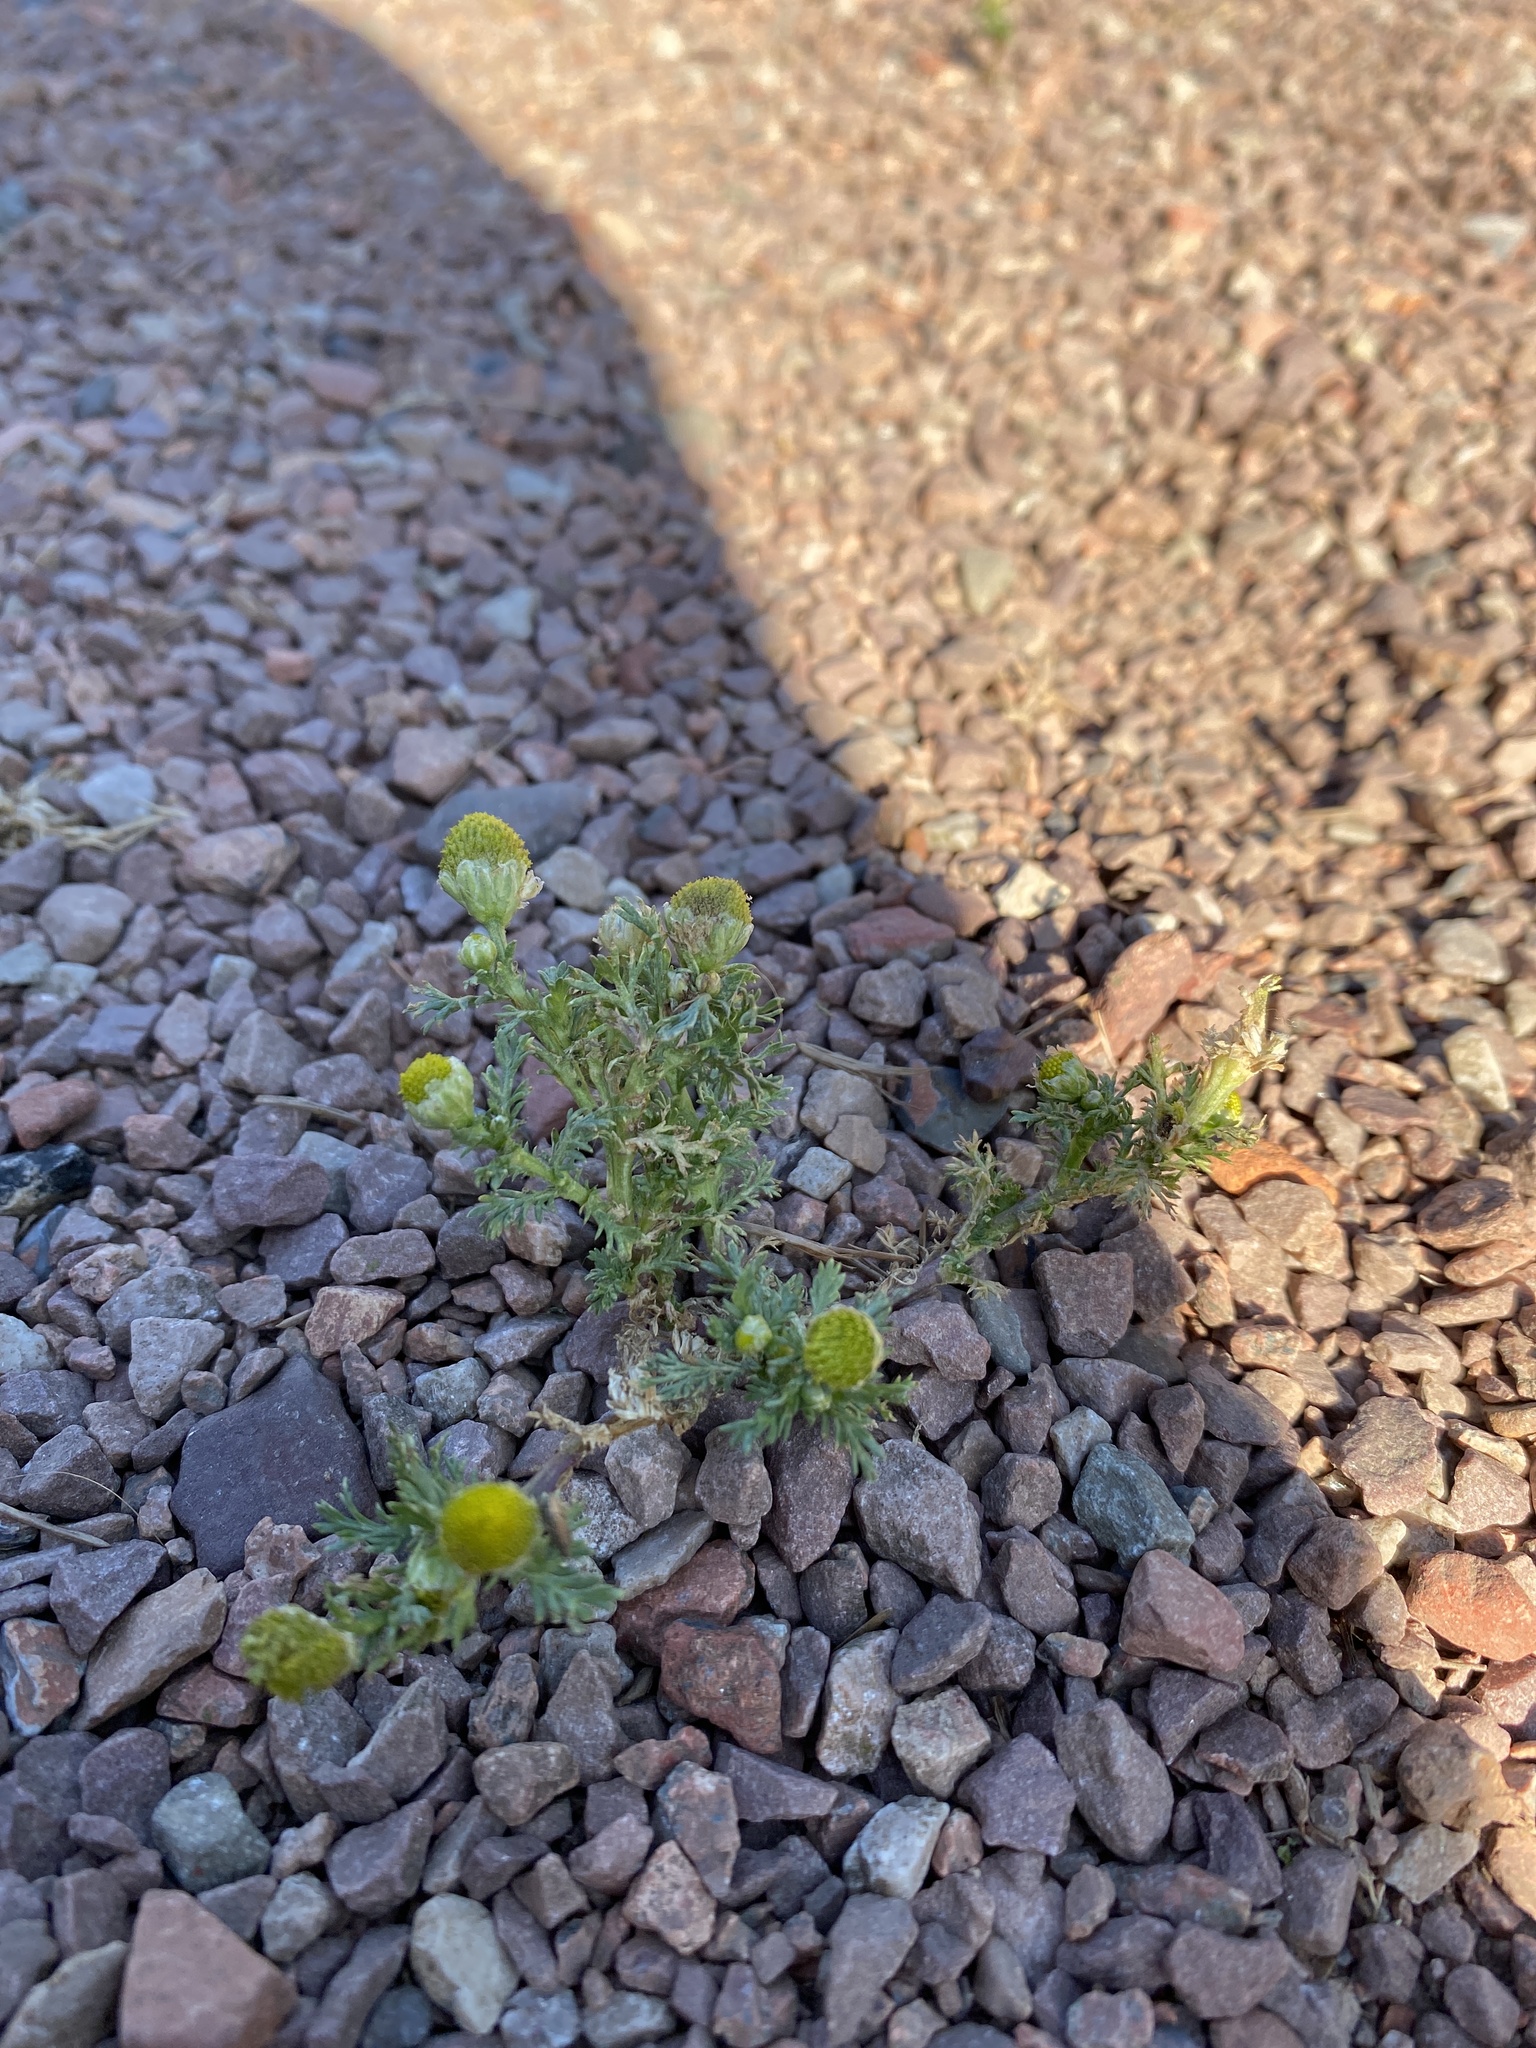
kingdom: Plantae
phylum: Tracheophyta
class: Magnoliopsida
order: Asterales
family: Asteraceae
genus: Matricaria
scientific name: Matricaria discoidea
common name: Disc mayweed
